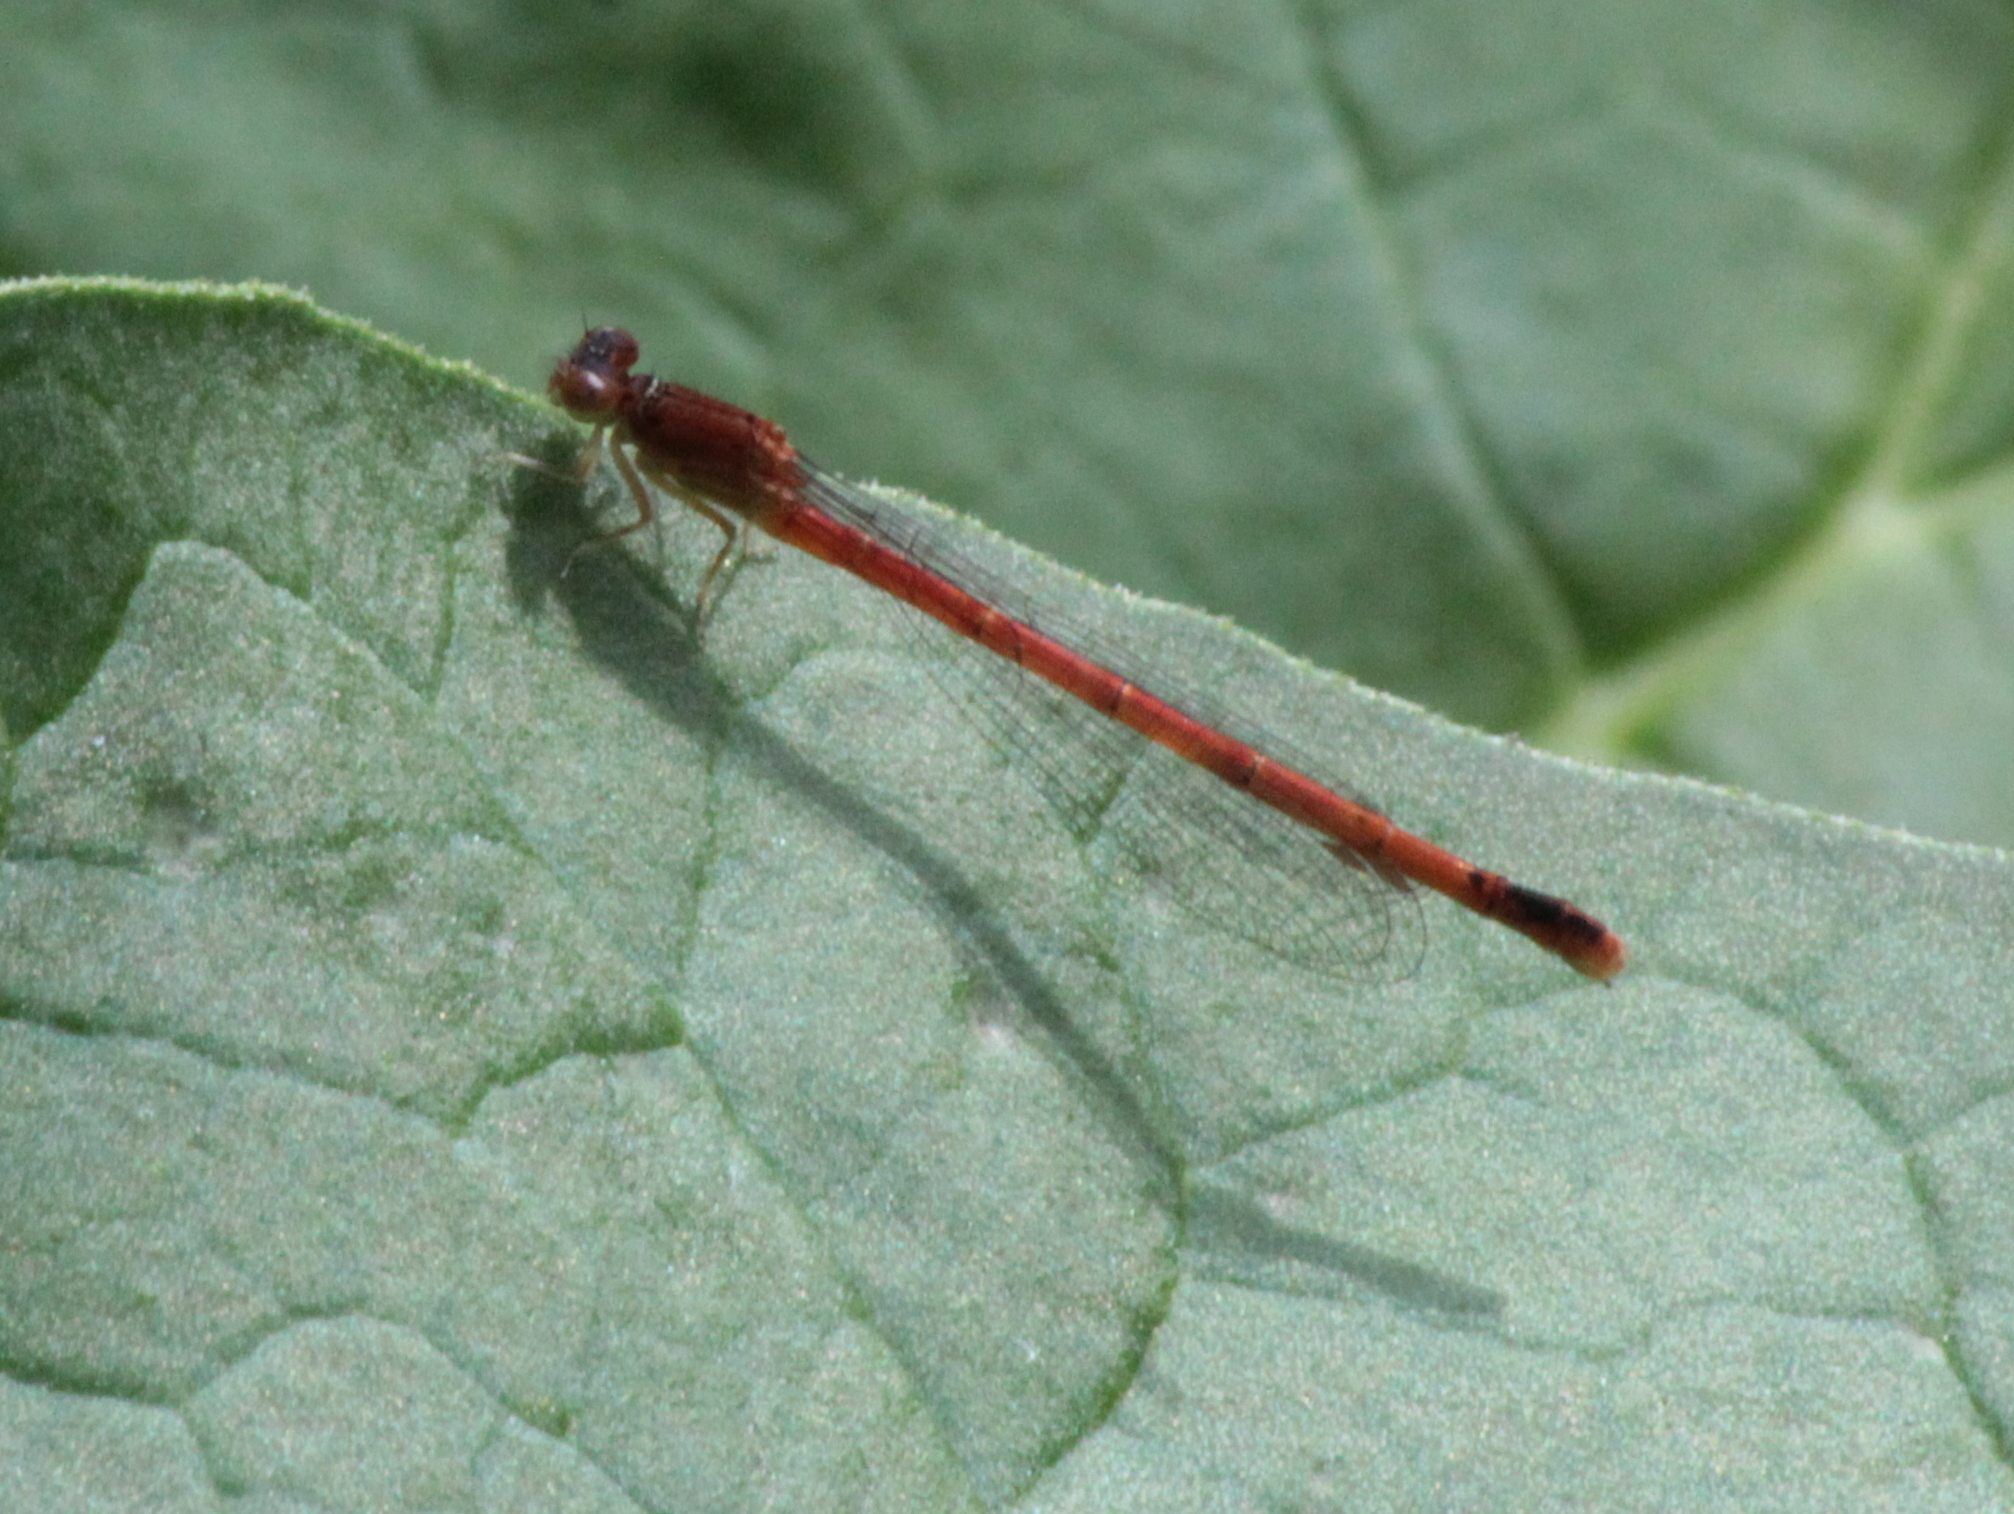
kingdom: Animalia
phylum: Arthropoda
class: Insecta
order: Odonata
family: Coenagrionidae
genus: Amphiagrion
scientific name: Amphiagrion saucium
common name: Eastern red damsel
